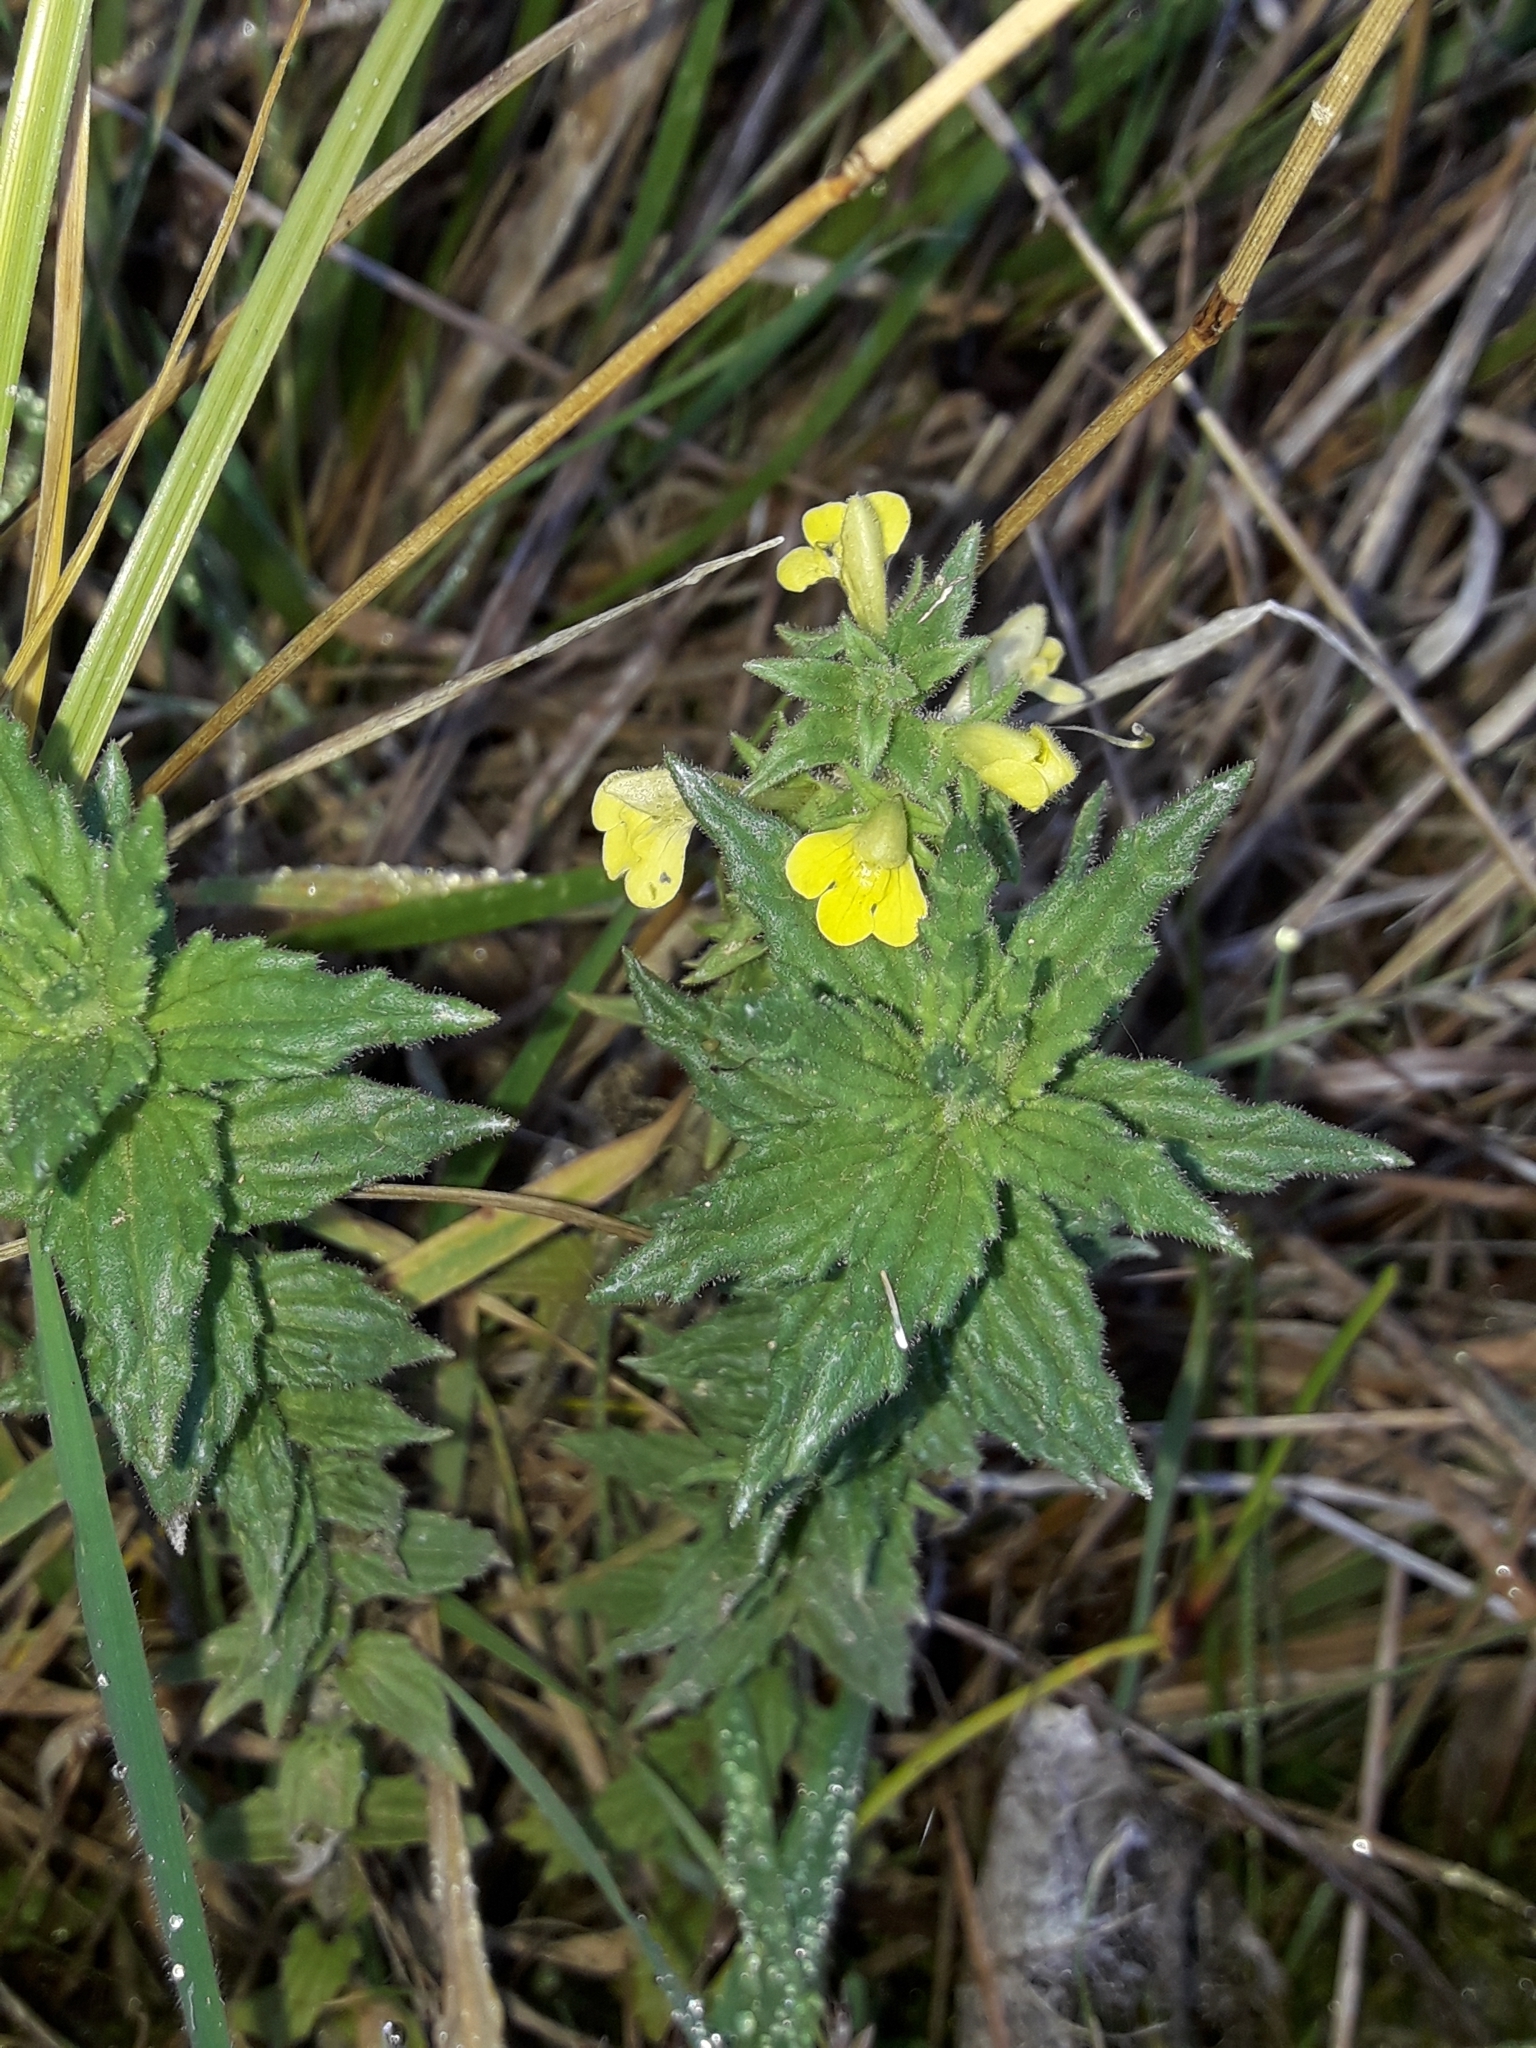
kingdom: Plantae
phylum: Tracheophyta
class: Magnoliopsida
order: Lamiales
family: Orobanchaceae
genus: Bellardia
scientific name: Bellardia viscosa
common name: Sticky parentucellia
